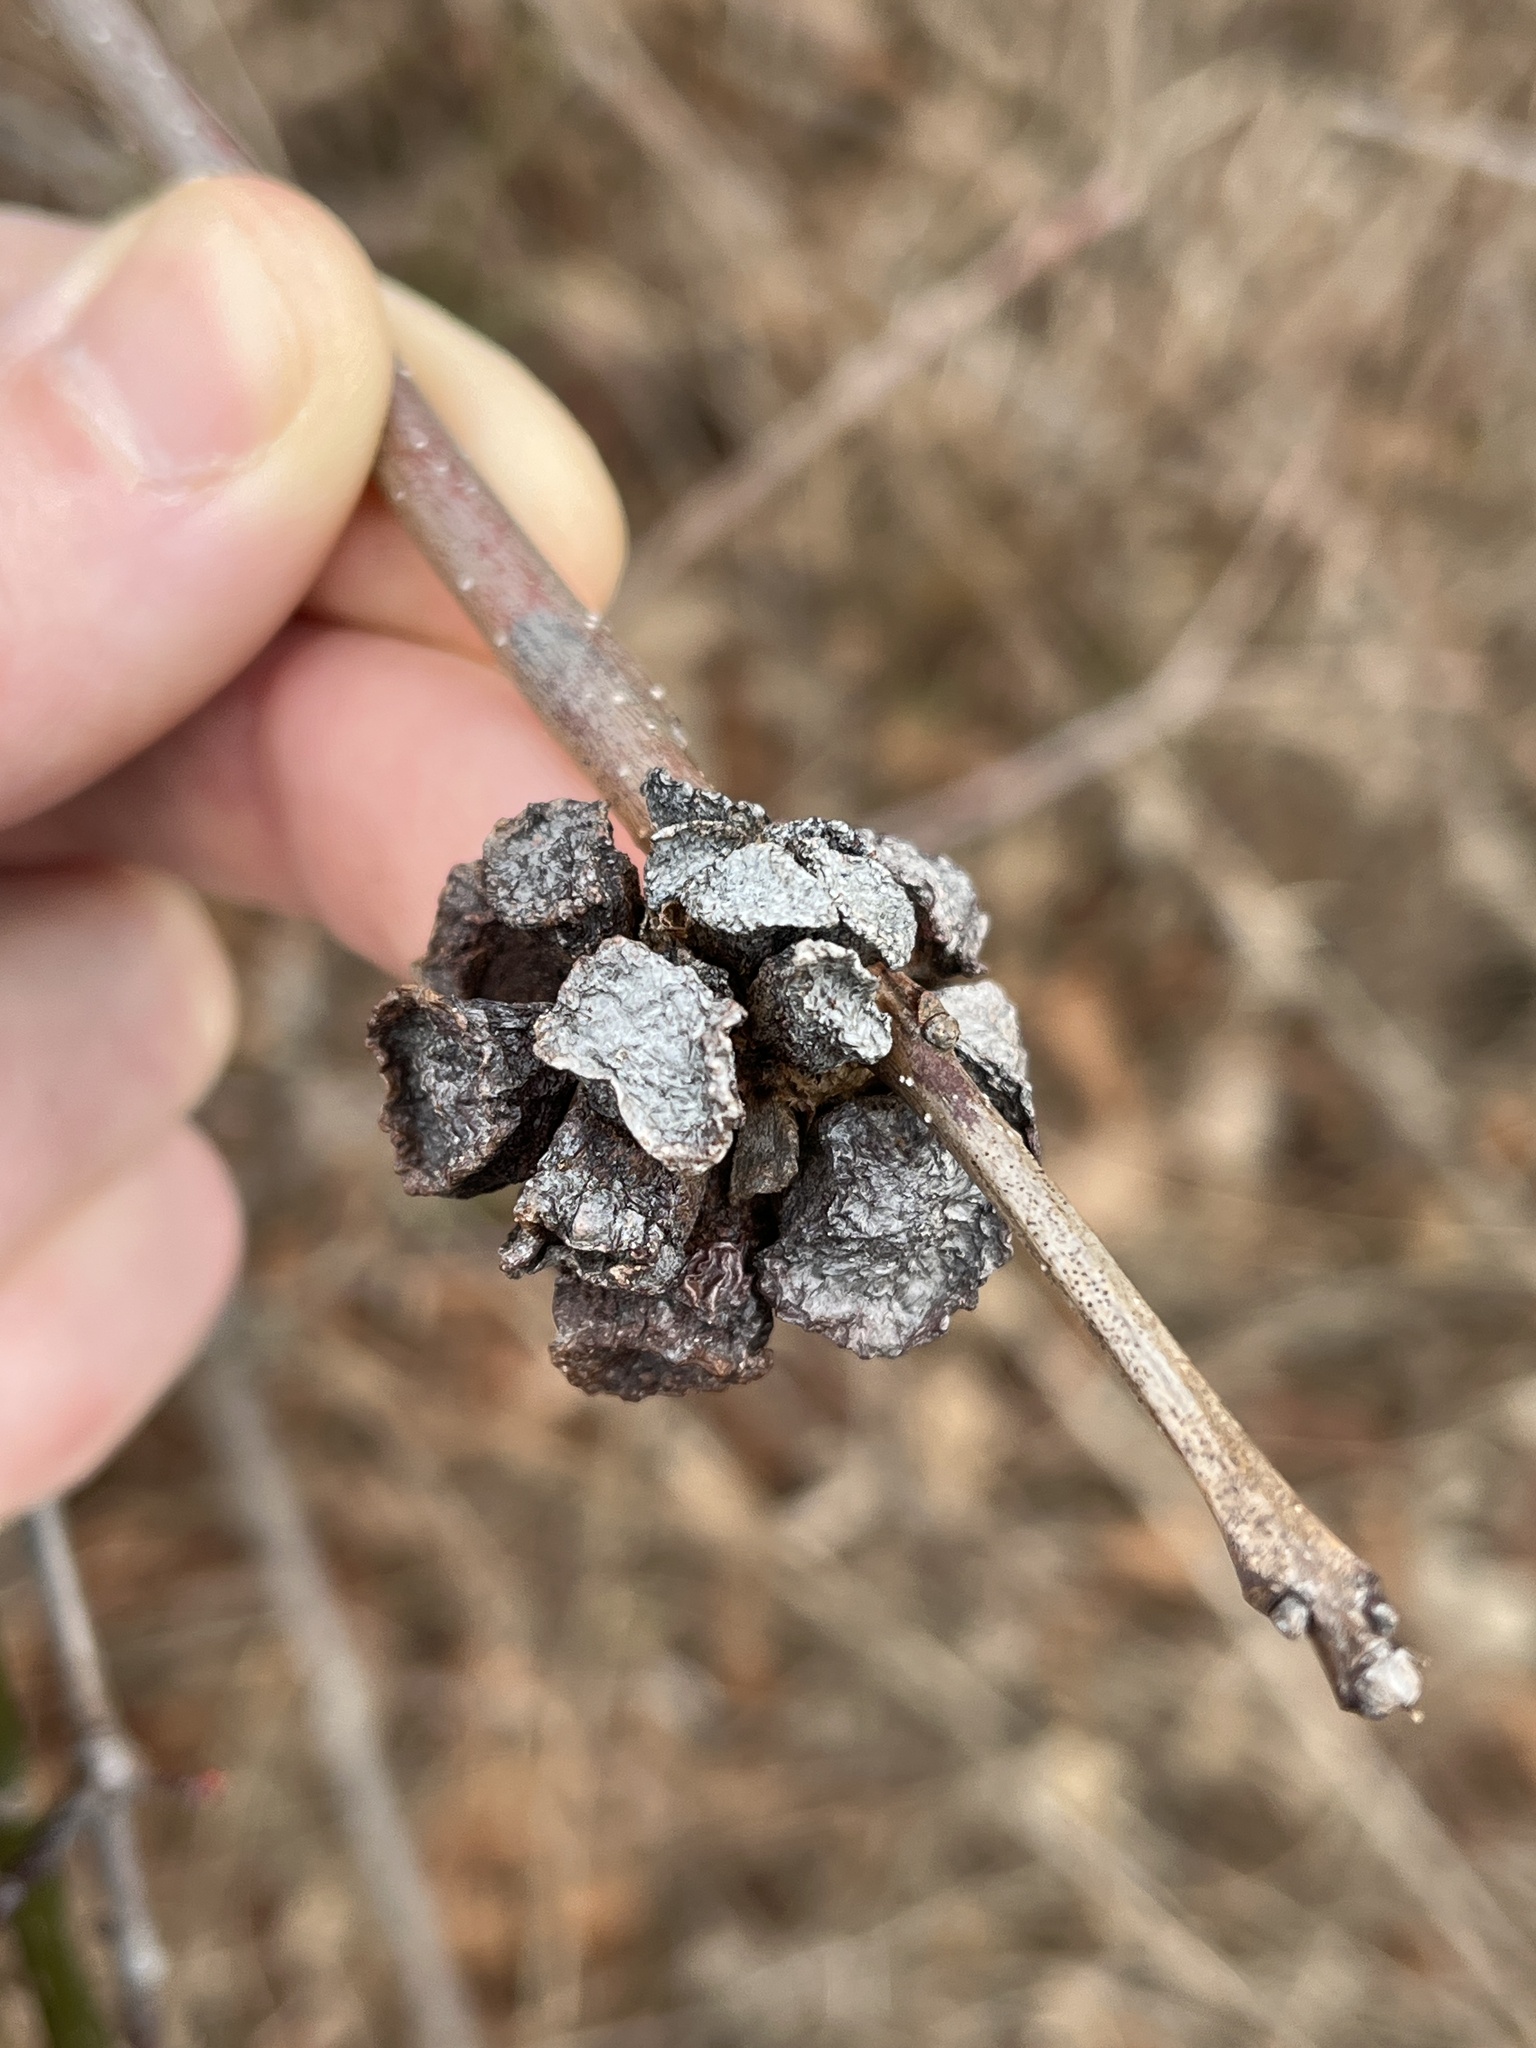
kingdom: Animalia
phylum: Arthropoda
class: Insecta
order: Hymenoptera
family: Cynipidae
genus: Andricus
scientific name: Andricus
